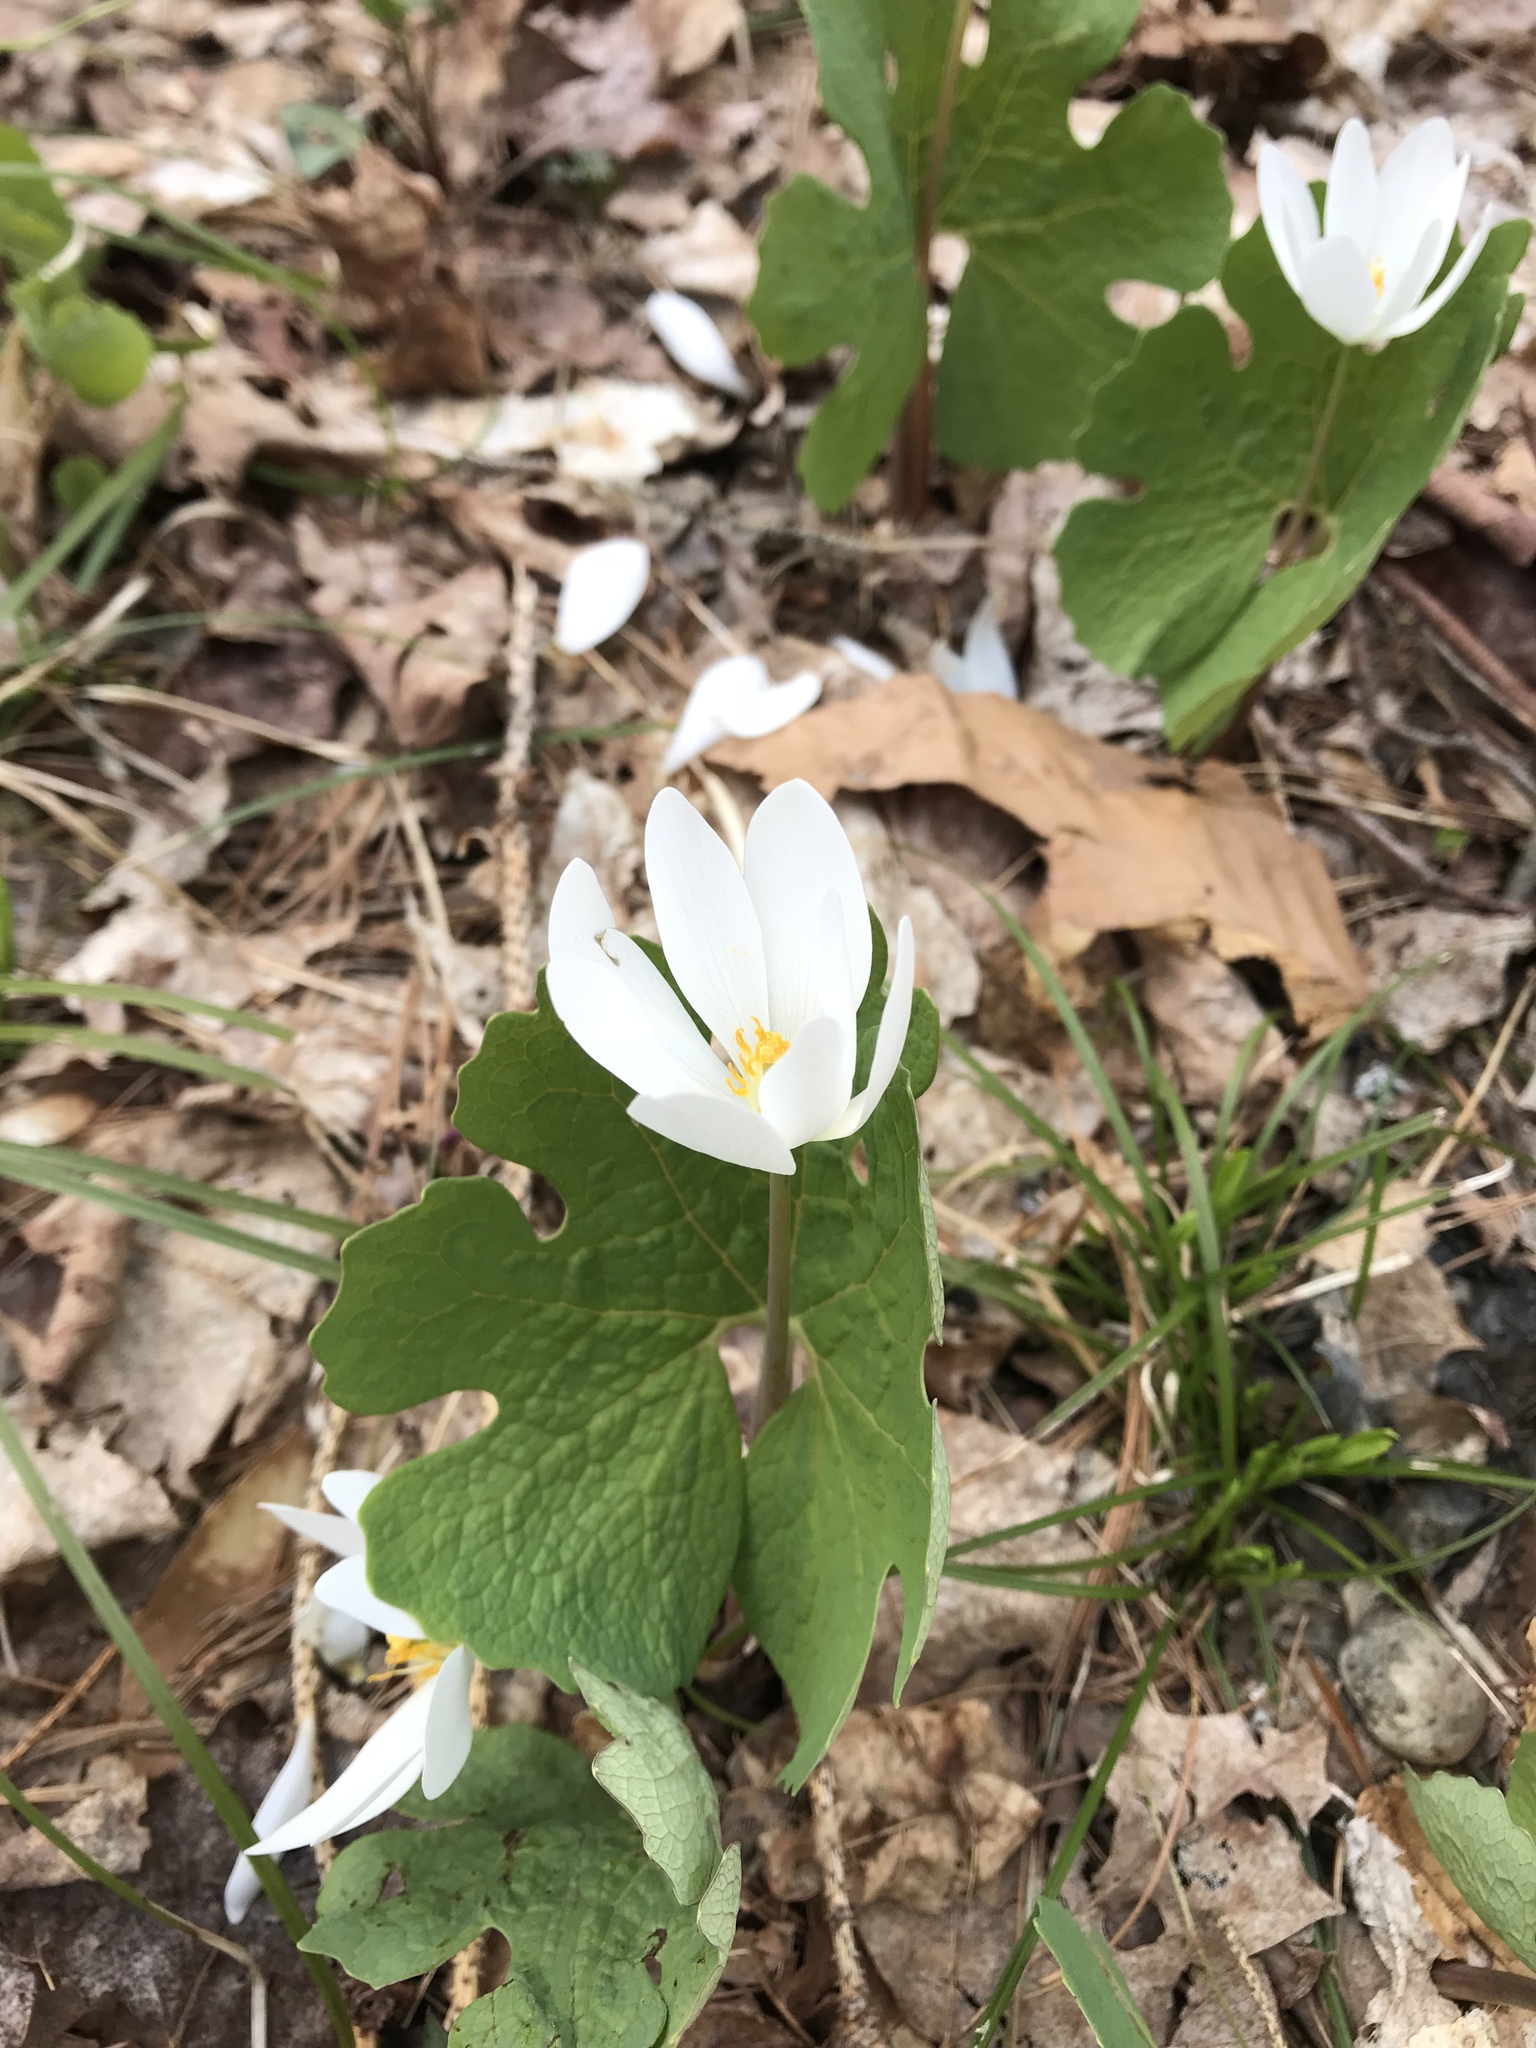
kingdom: Plantae
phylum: Tracheophyta
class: Magnoliopsida
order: Ranunculales
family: Papaveraceae
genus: Sanguinaria
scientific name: Sanguinaria canadensis
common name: Bloodroot
